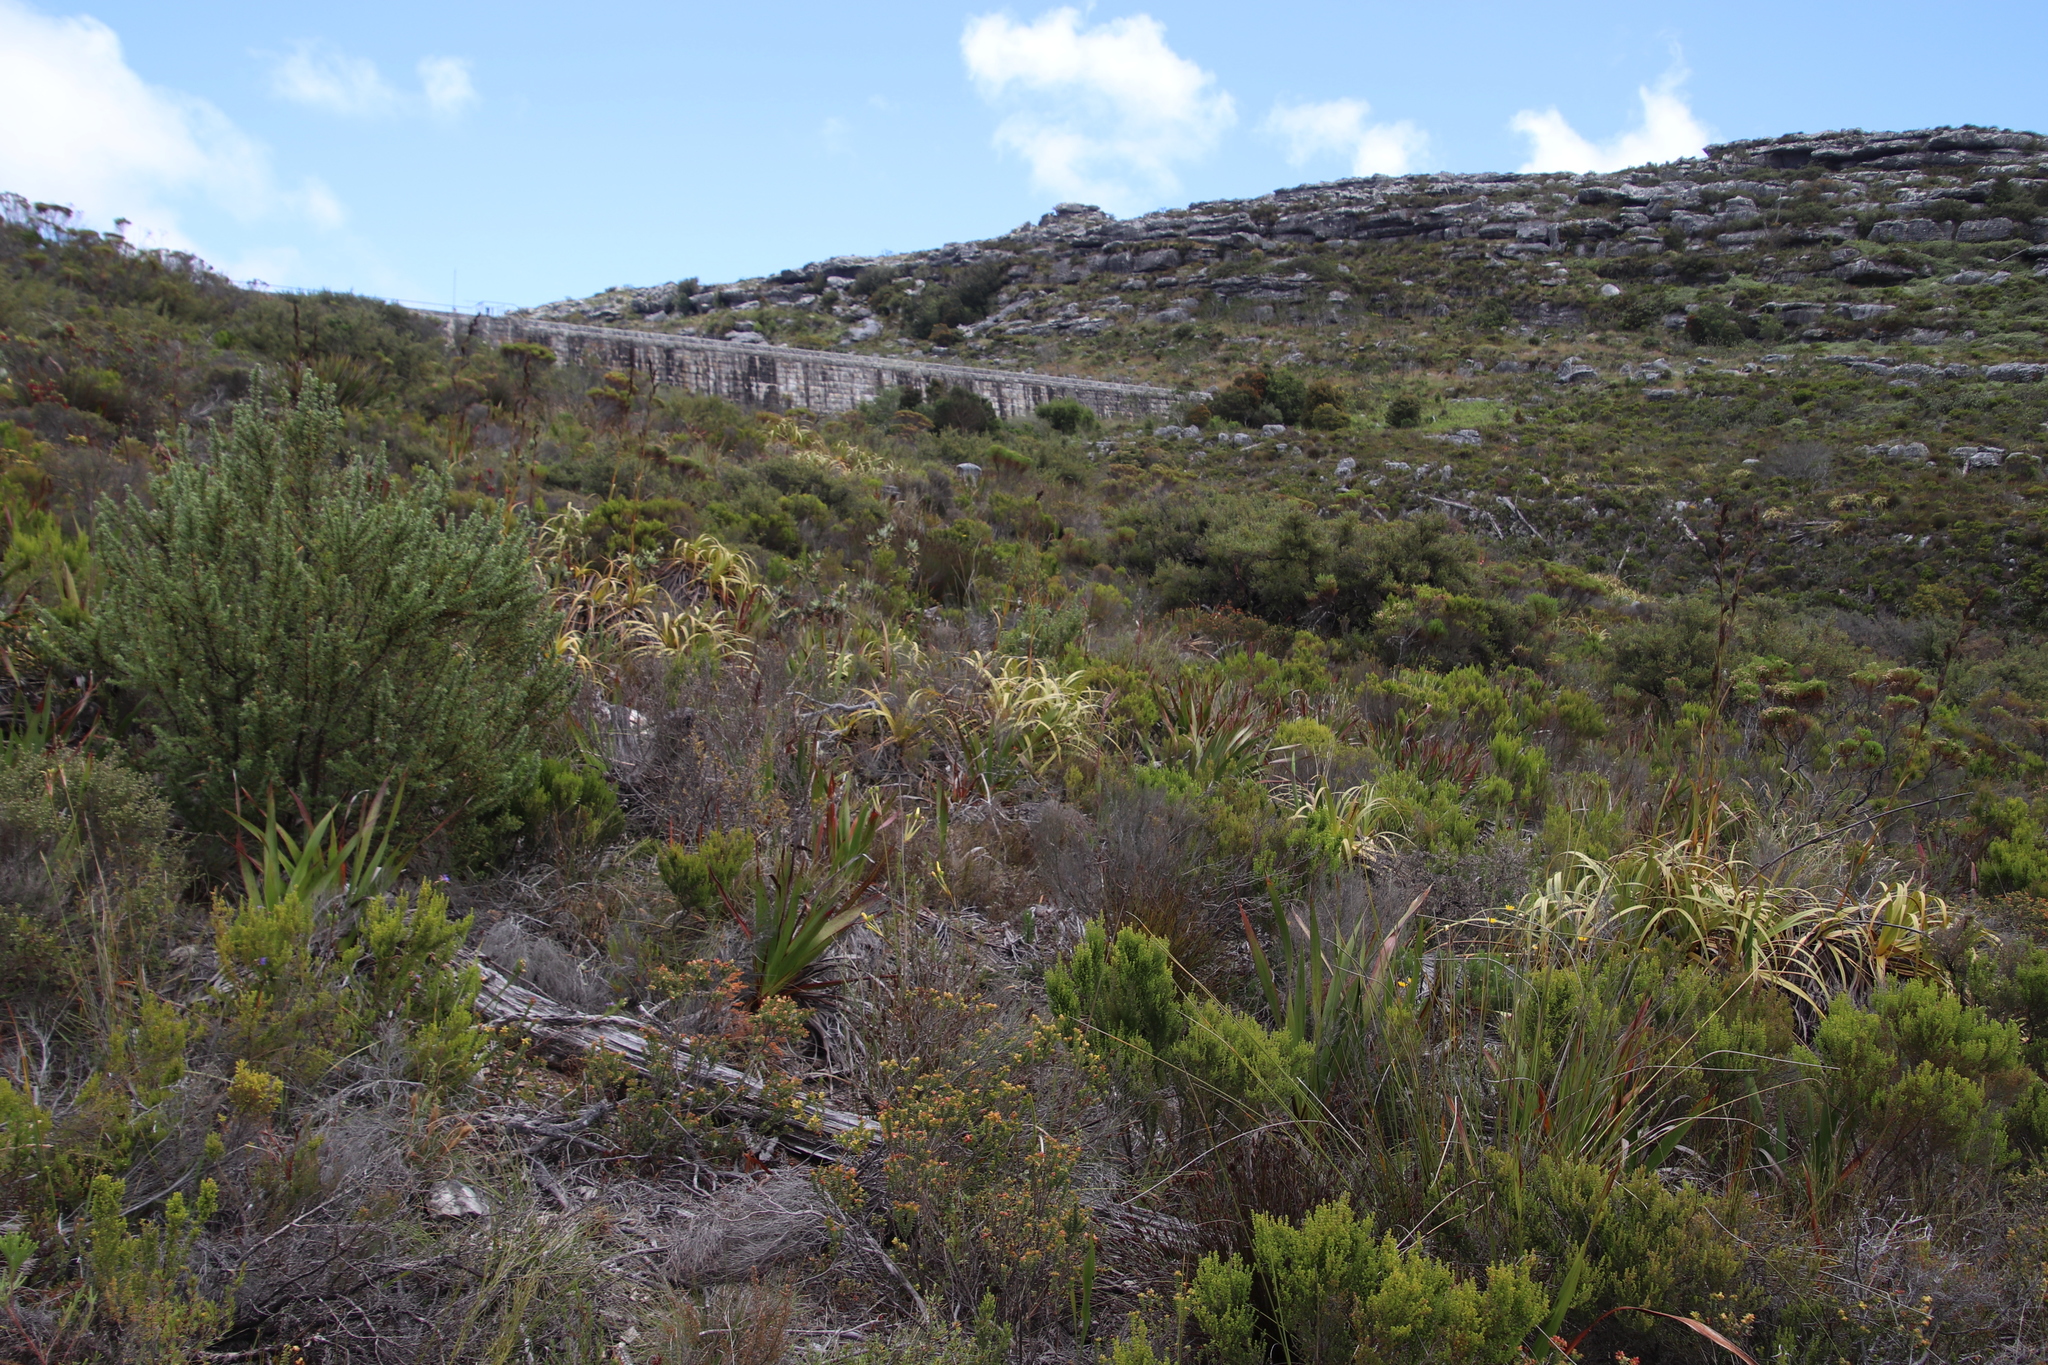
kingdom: Plantae
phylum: Tracheophyta
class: Liliopsida
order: Poales
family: Cyperaceae
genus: Tetraria
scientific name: Tetraria thermalis
